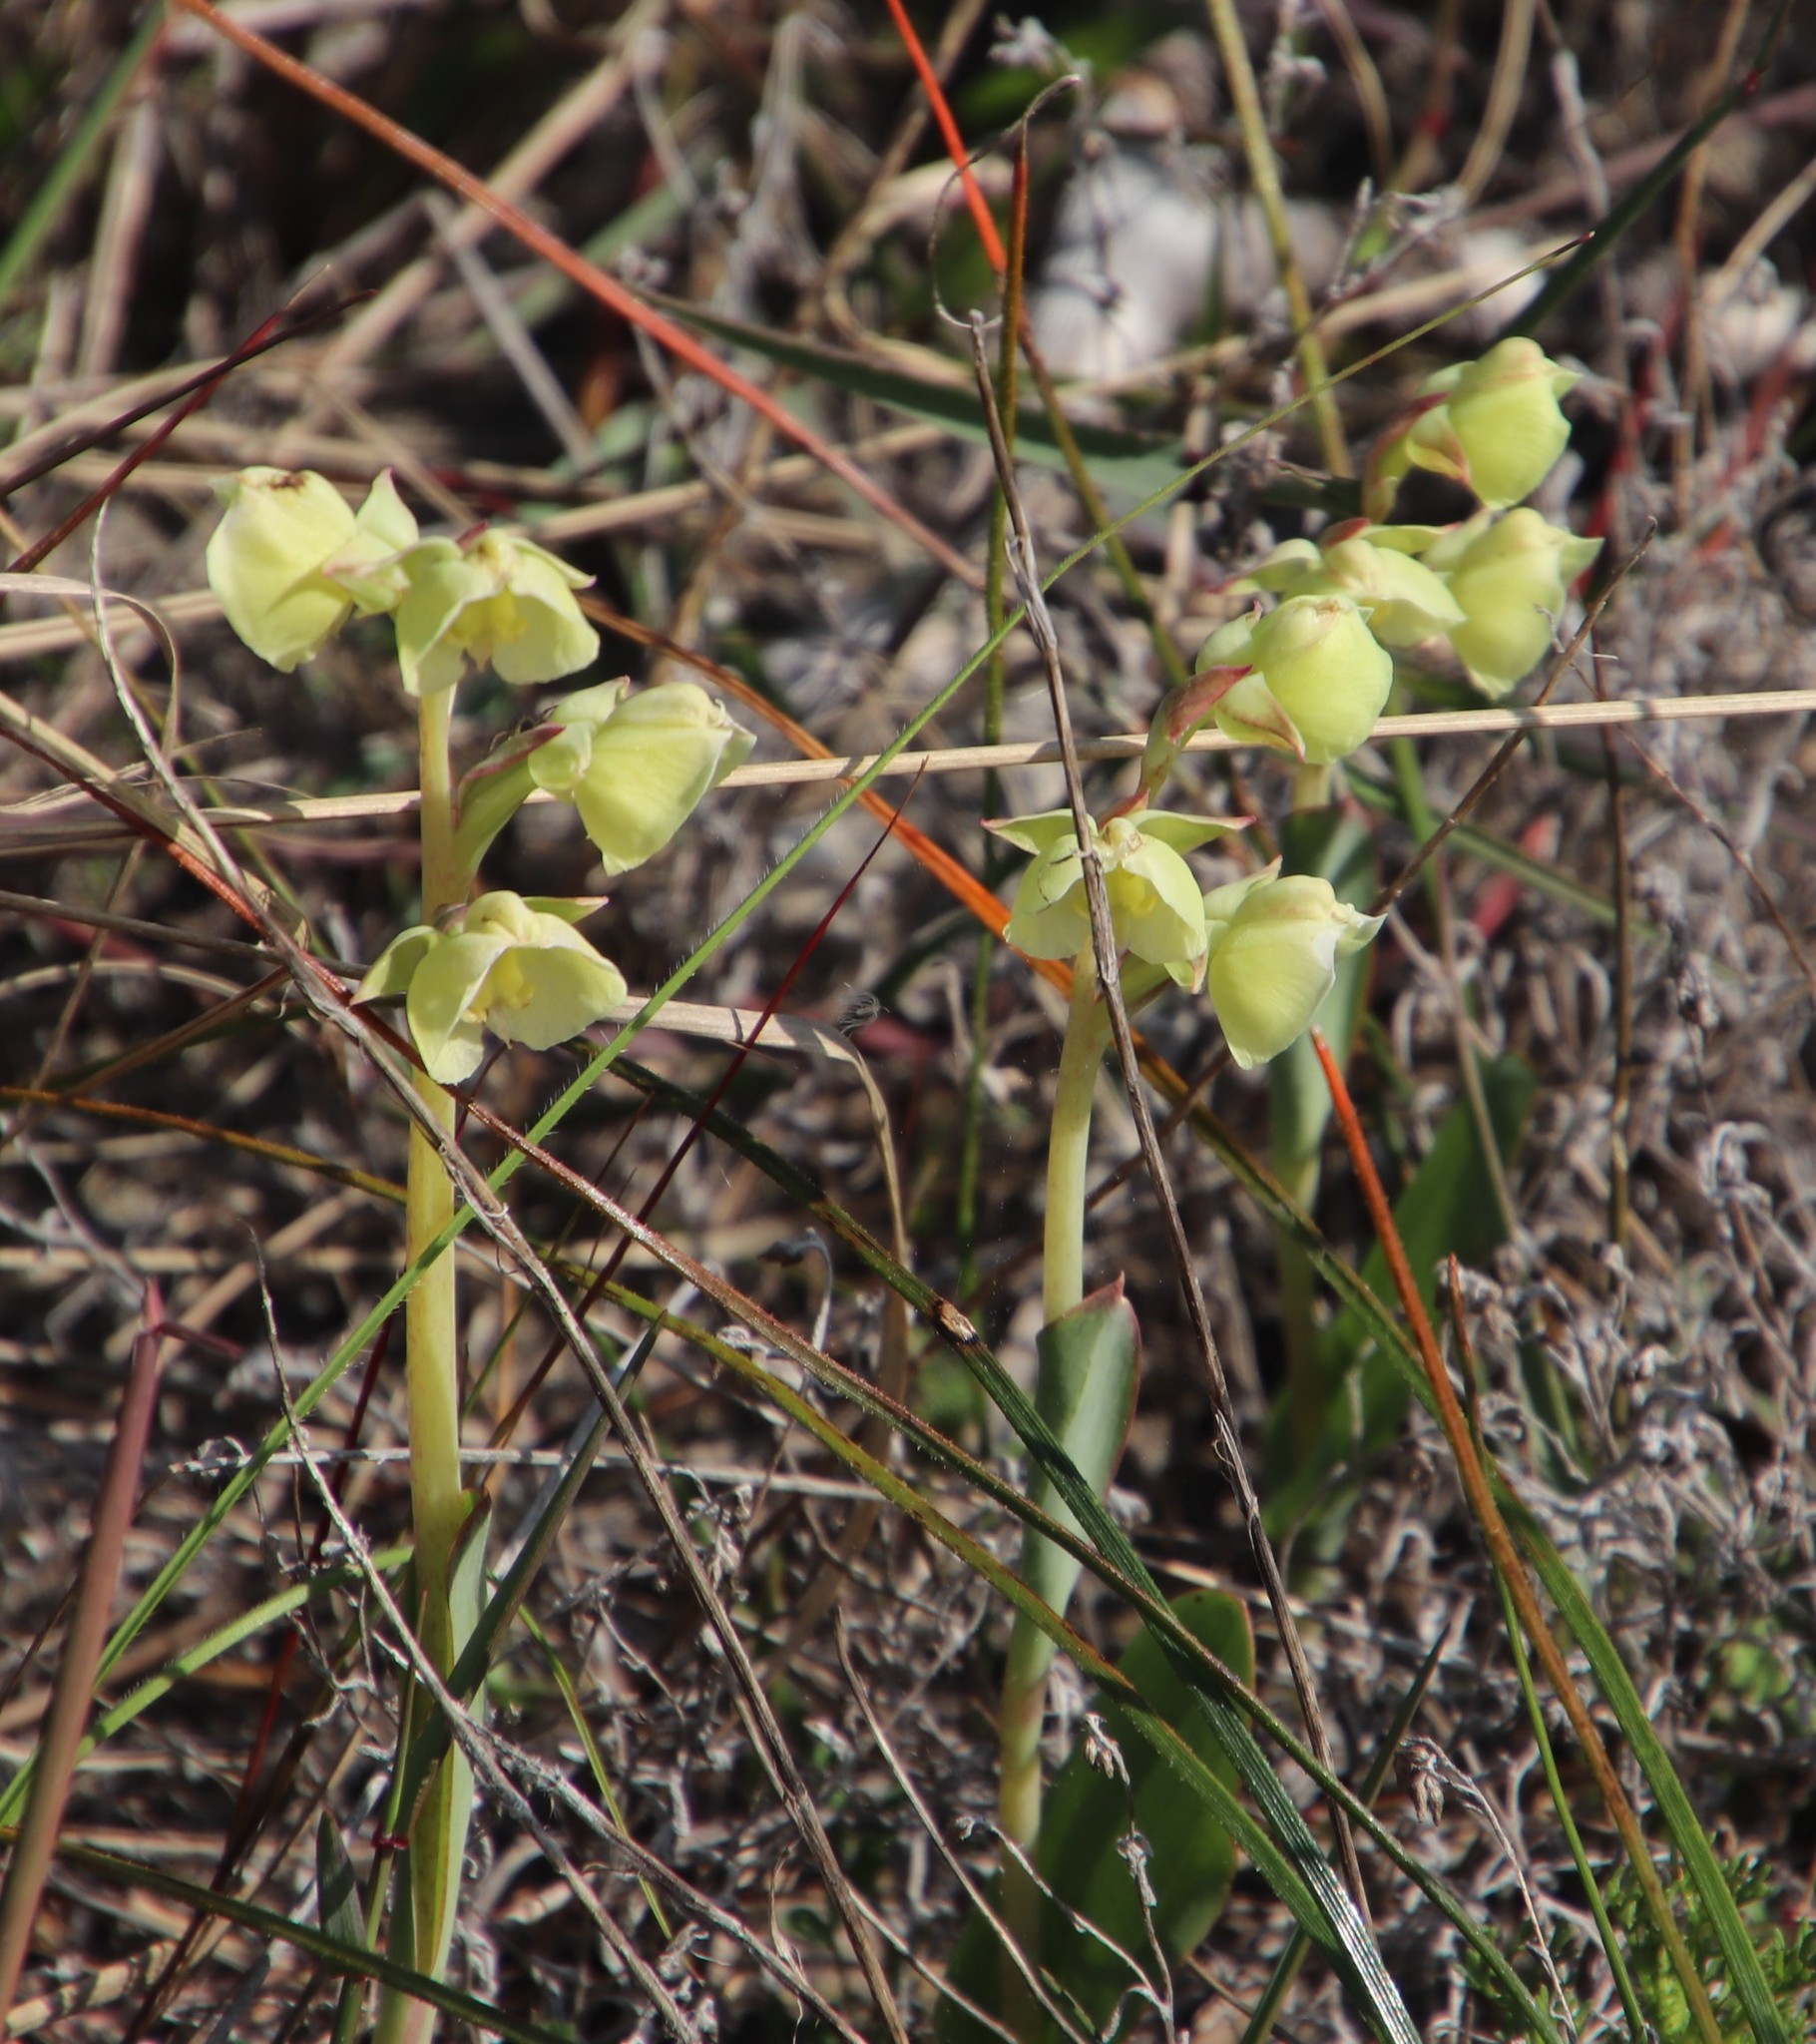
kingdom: Plantae
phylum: Tracheophyta
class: Liliopsida
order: Asparagales
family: Orchidaceae
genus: Pterygodium
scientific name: Pterygodium catholicum
